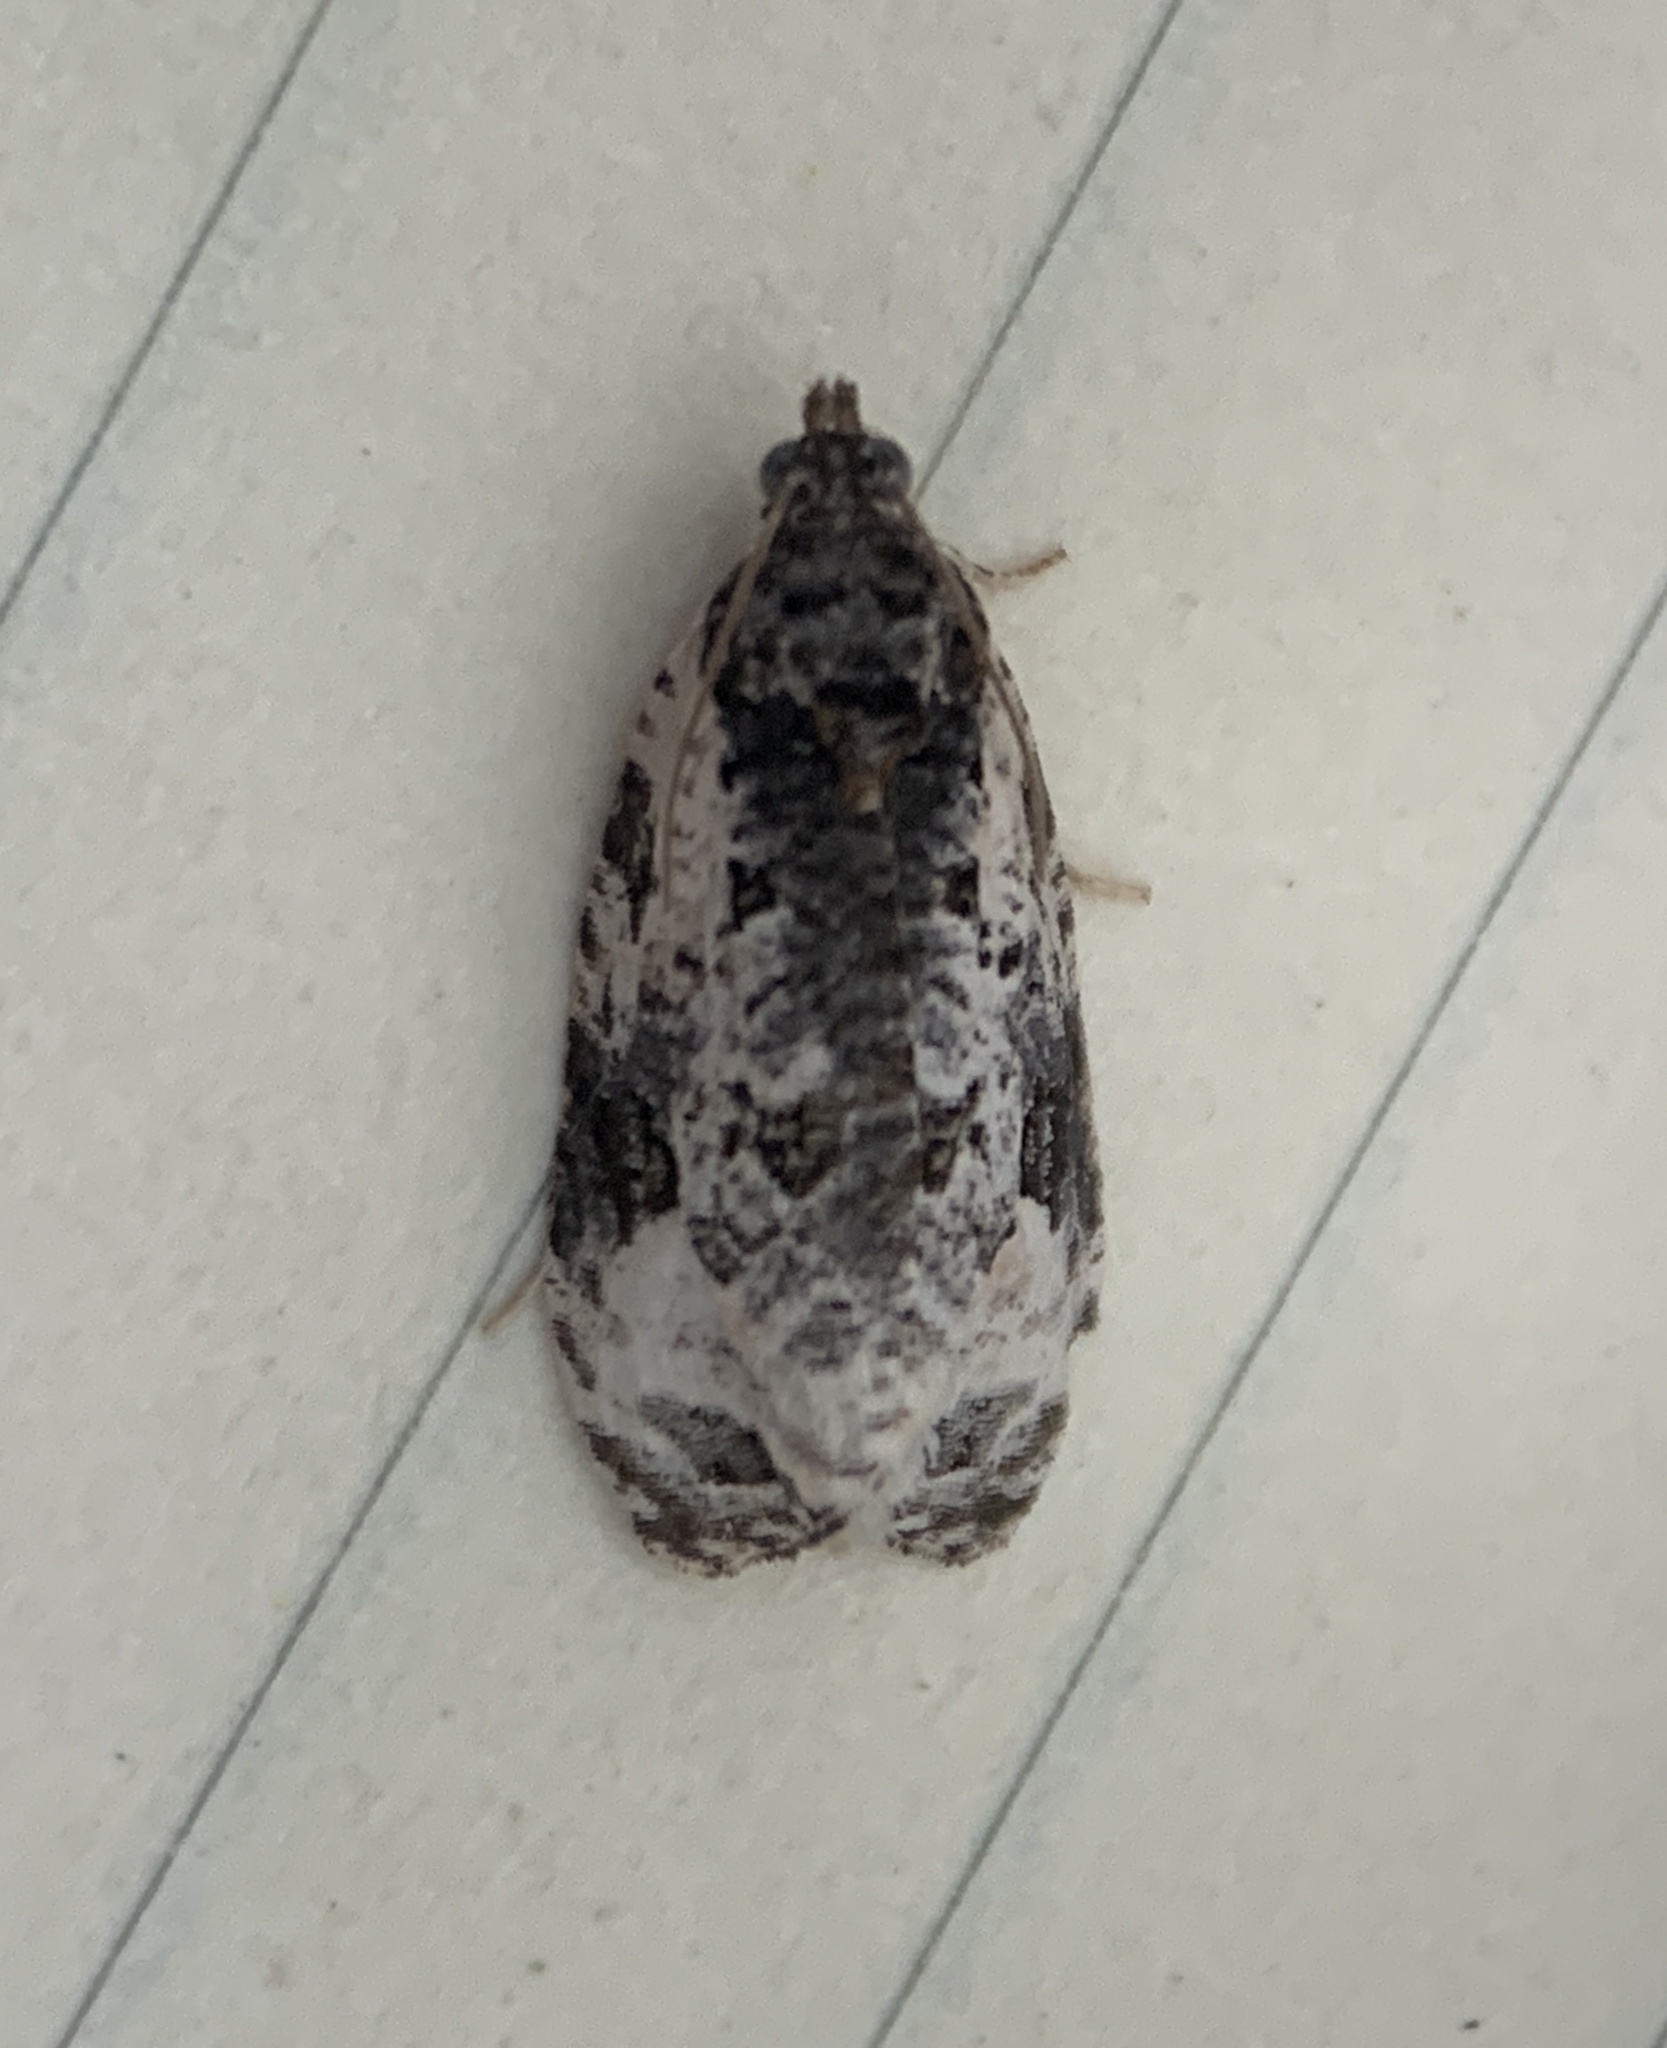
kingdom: Animalia
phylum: Arthropoda
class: Insecta
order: Lepidoptera
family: Tortricidae
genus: Apotomis
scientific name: Apotomis albeolana
